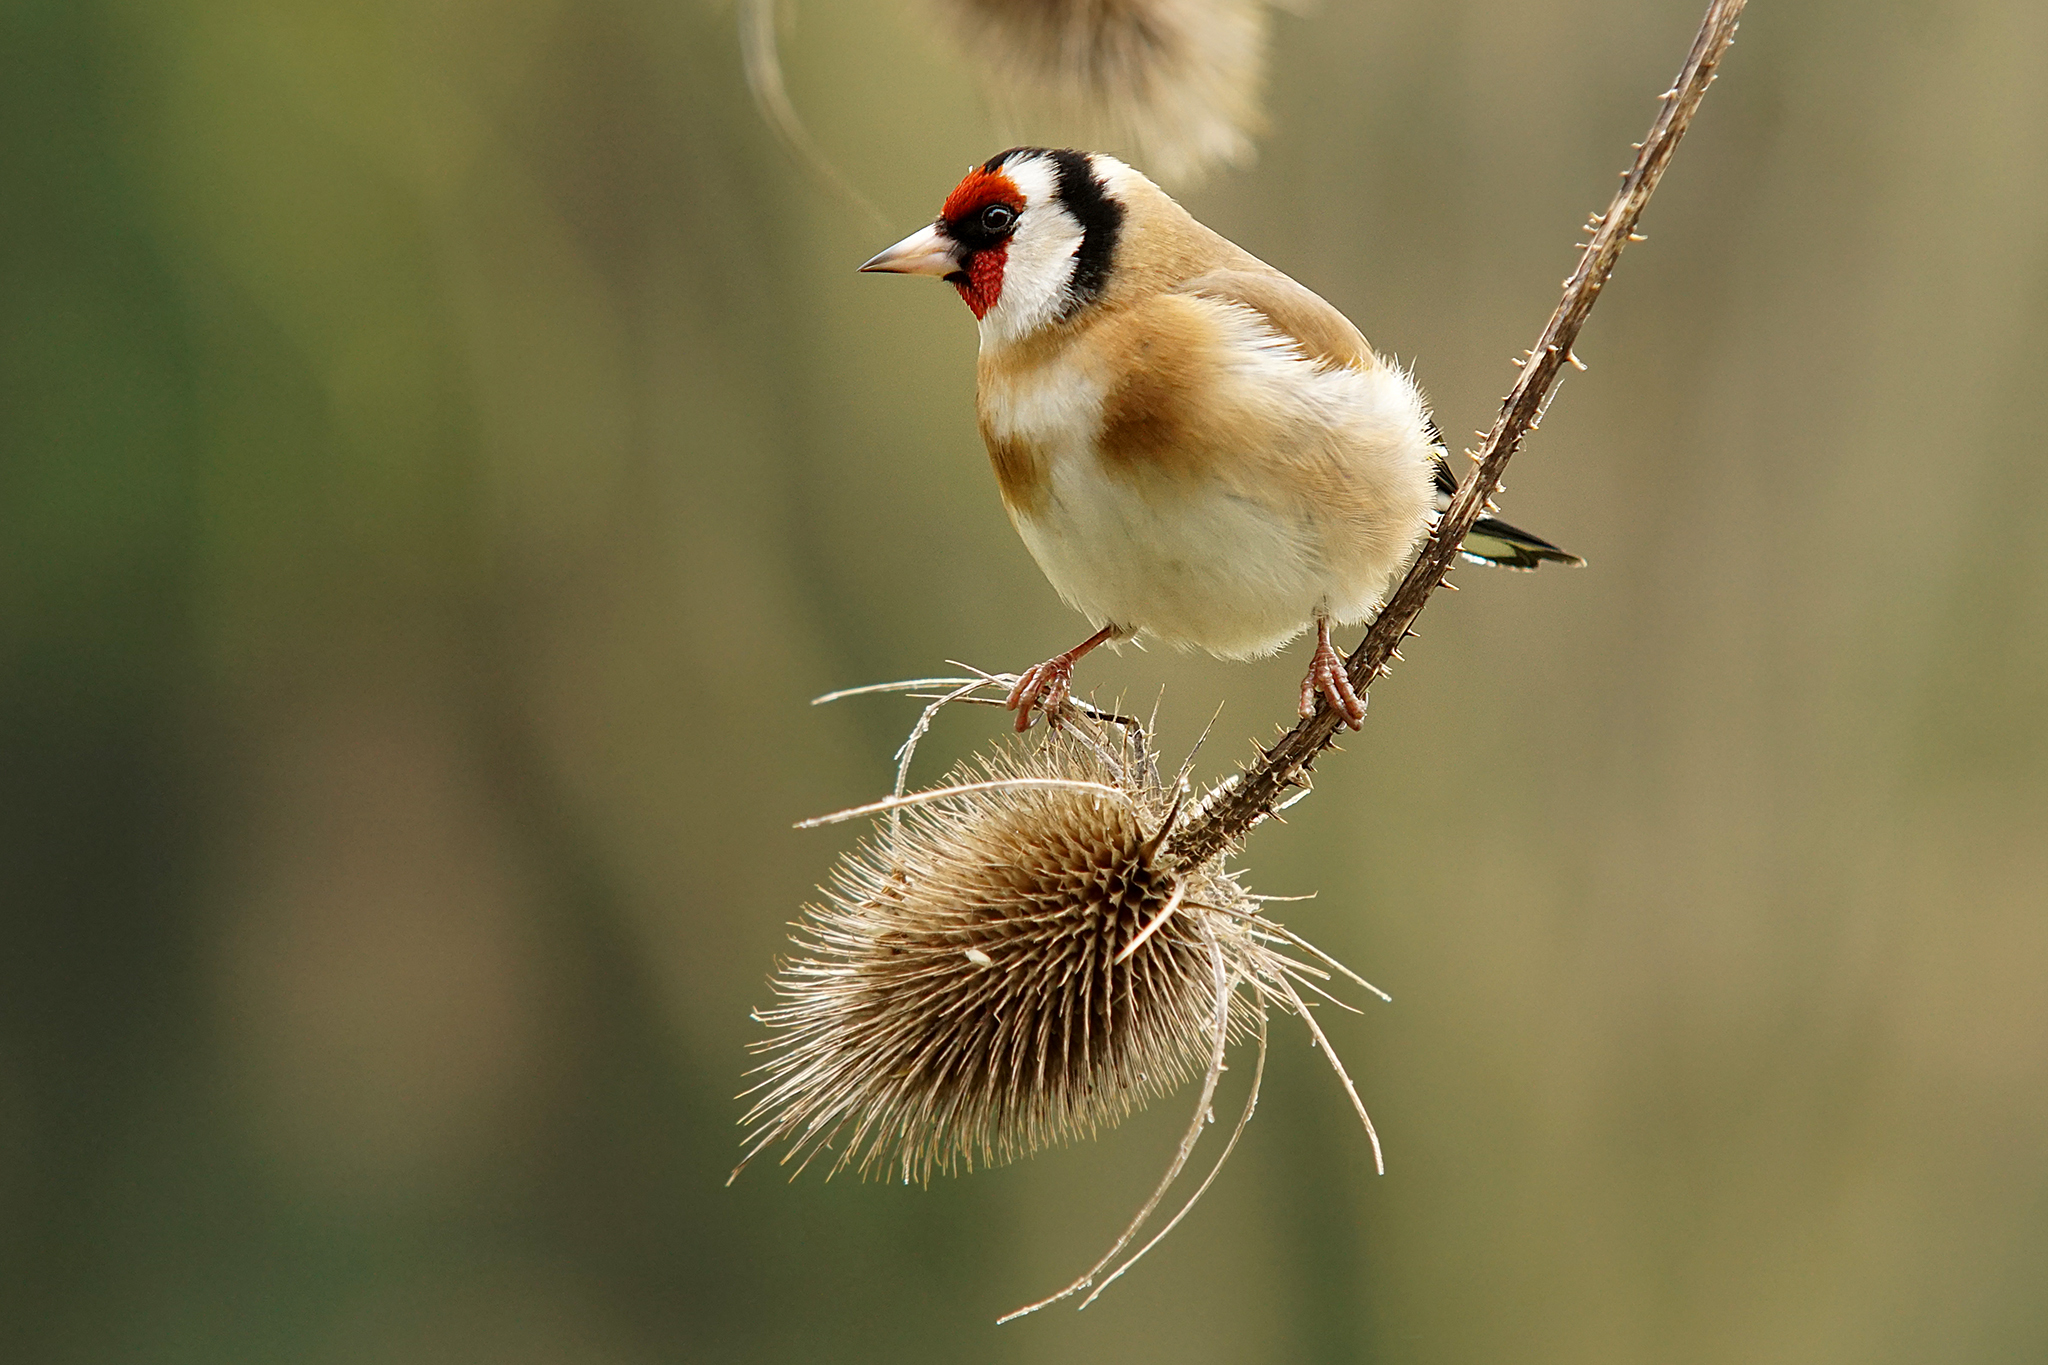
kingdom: Animalia
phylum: Chordata
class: Aves
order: Passeriformes
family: Fringillidae
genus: Carduelis
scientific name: Carduelis carduelis
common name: European goldfinch
